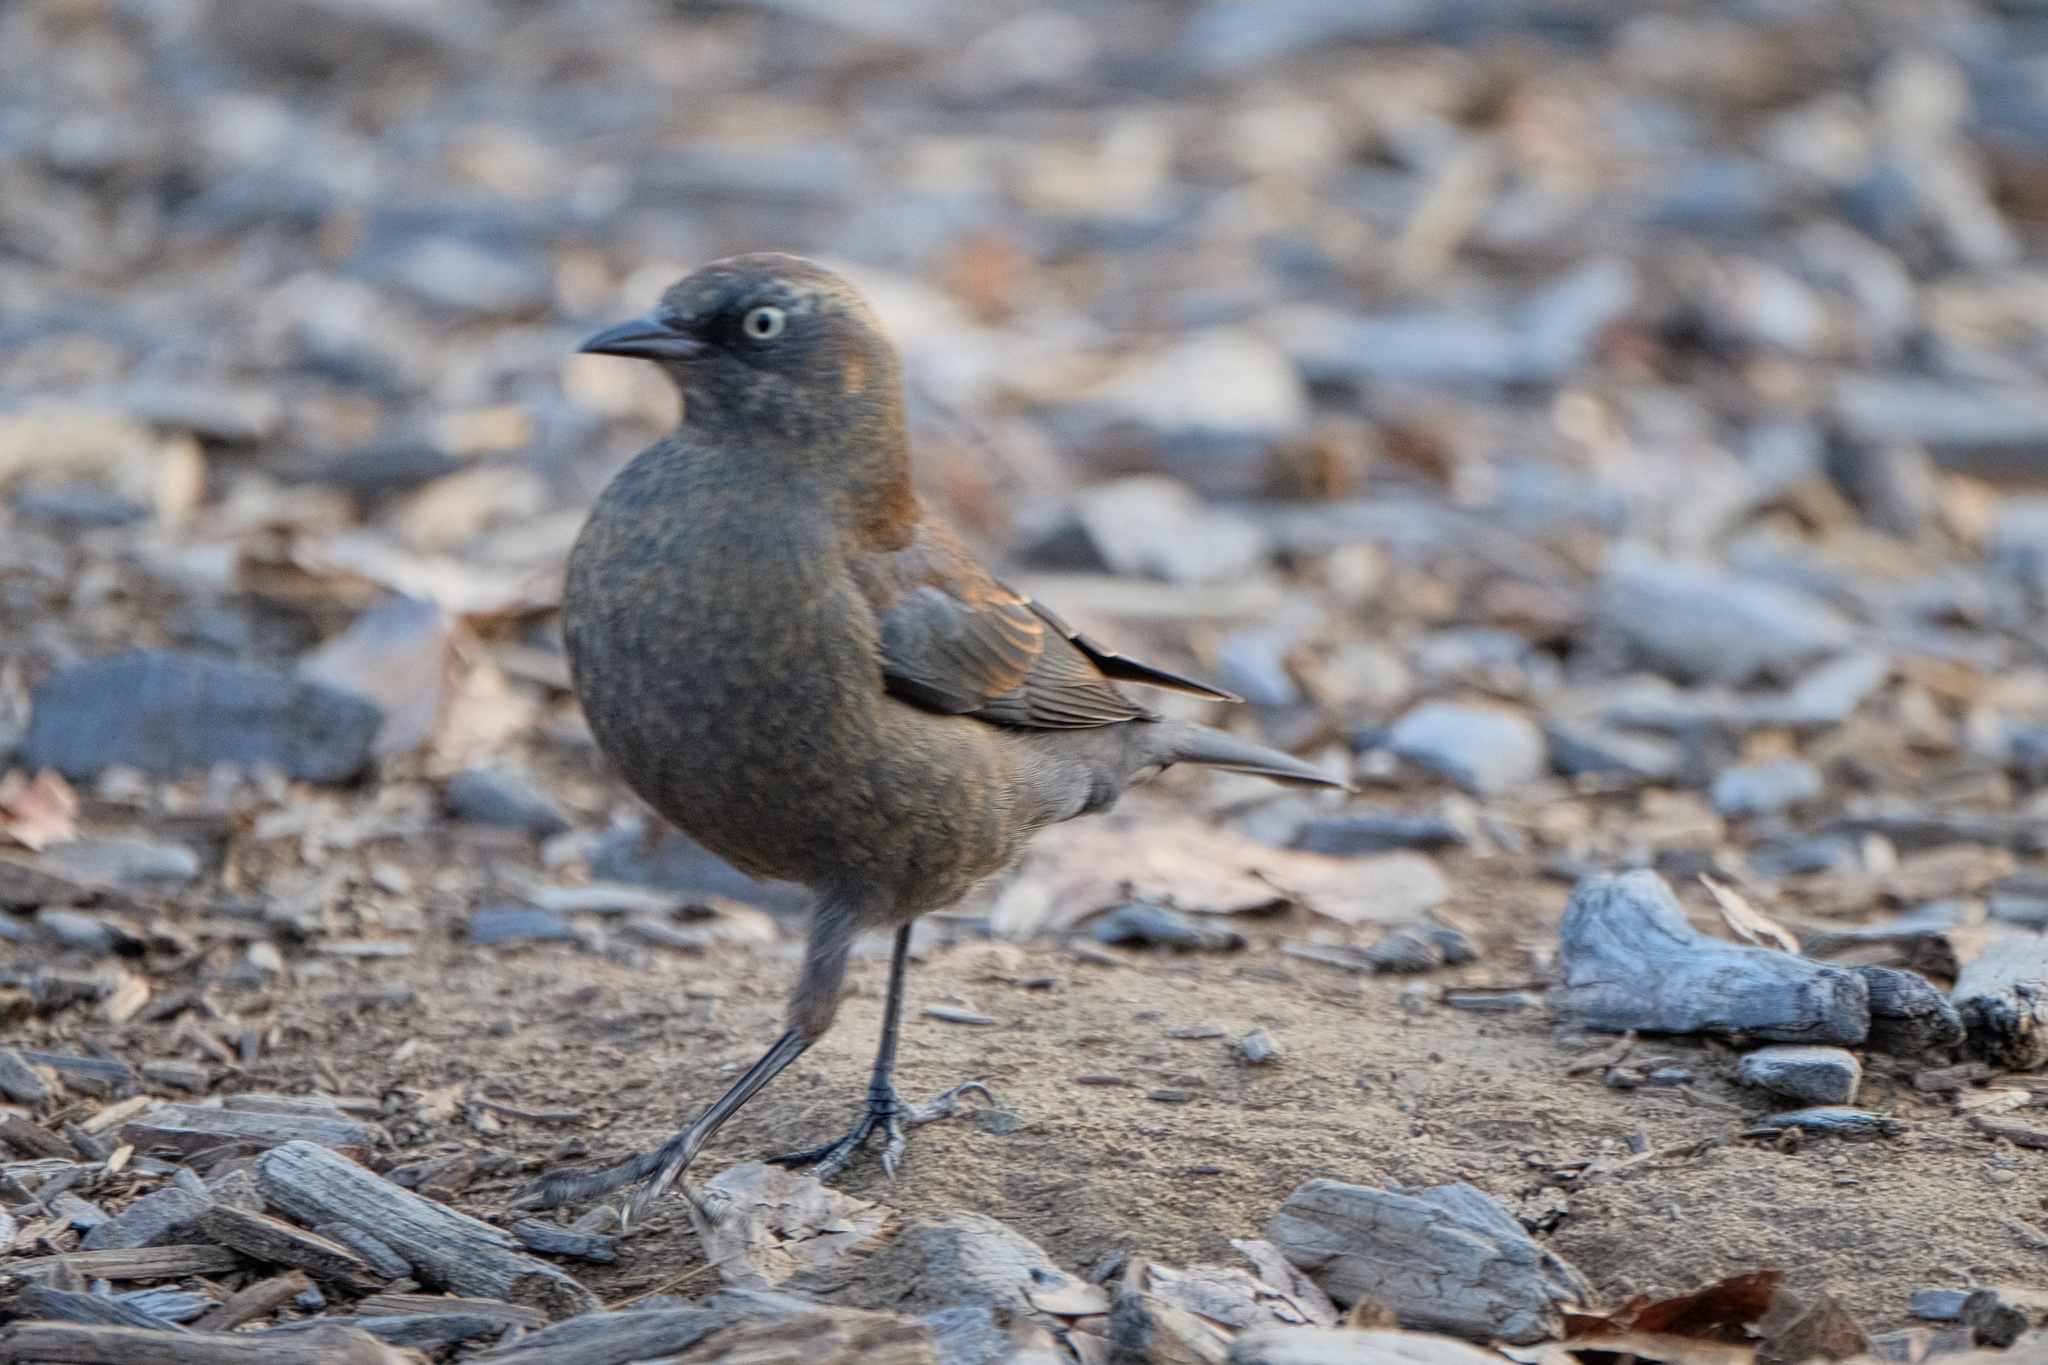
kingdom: Animalia
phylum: Chordata
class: Aves
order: Passeriformes
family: Icteridae
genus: Euphagus
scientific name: Euphagus carolinus
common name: Rusty blackbird
